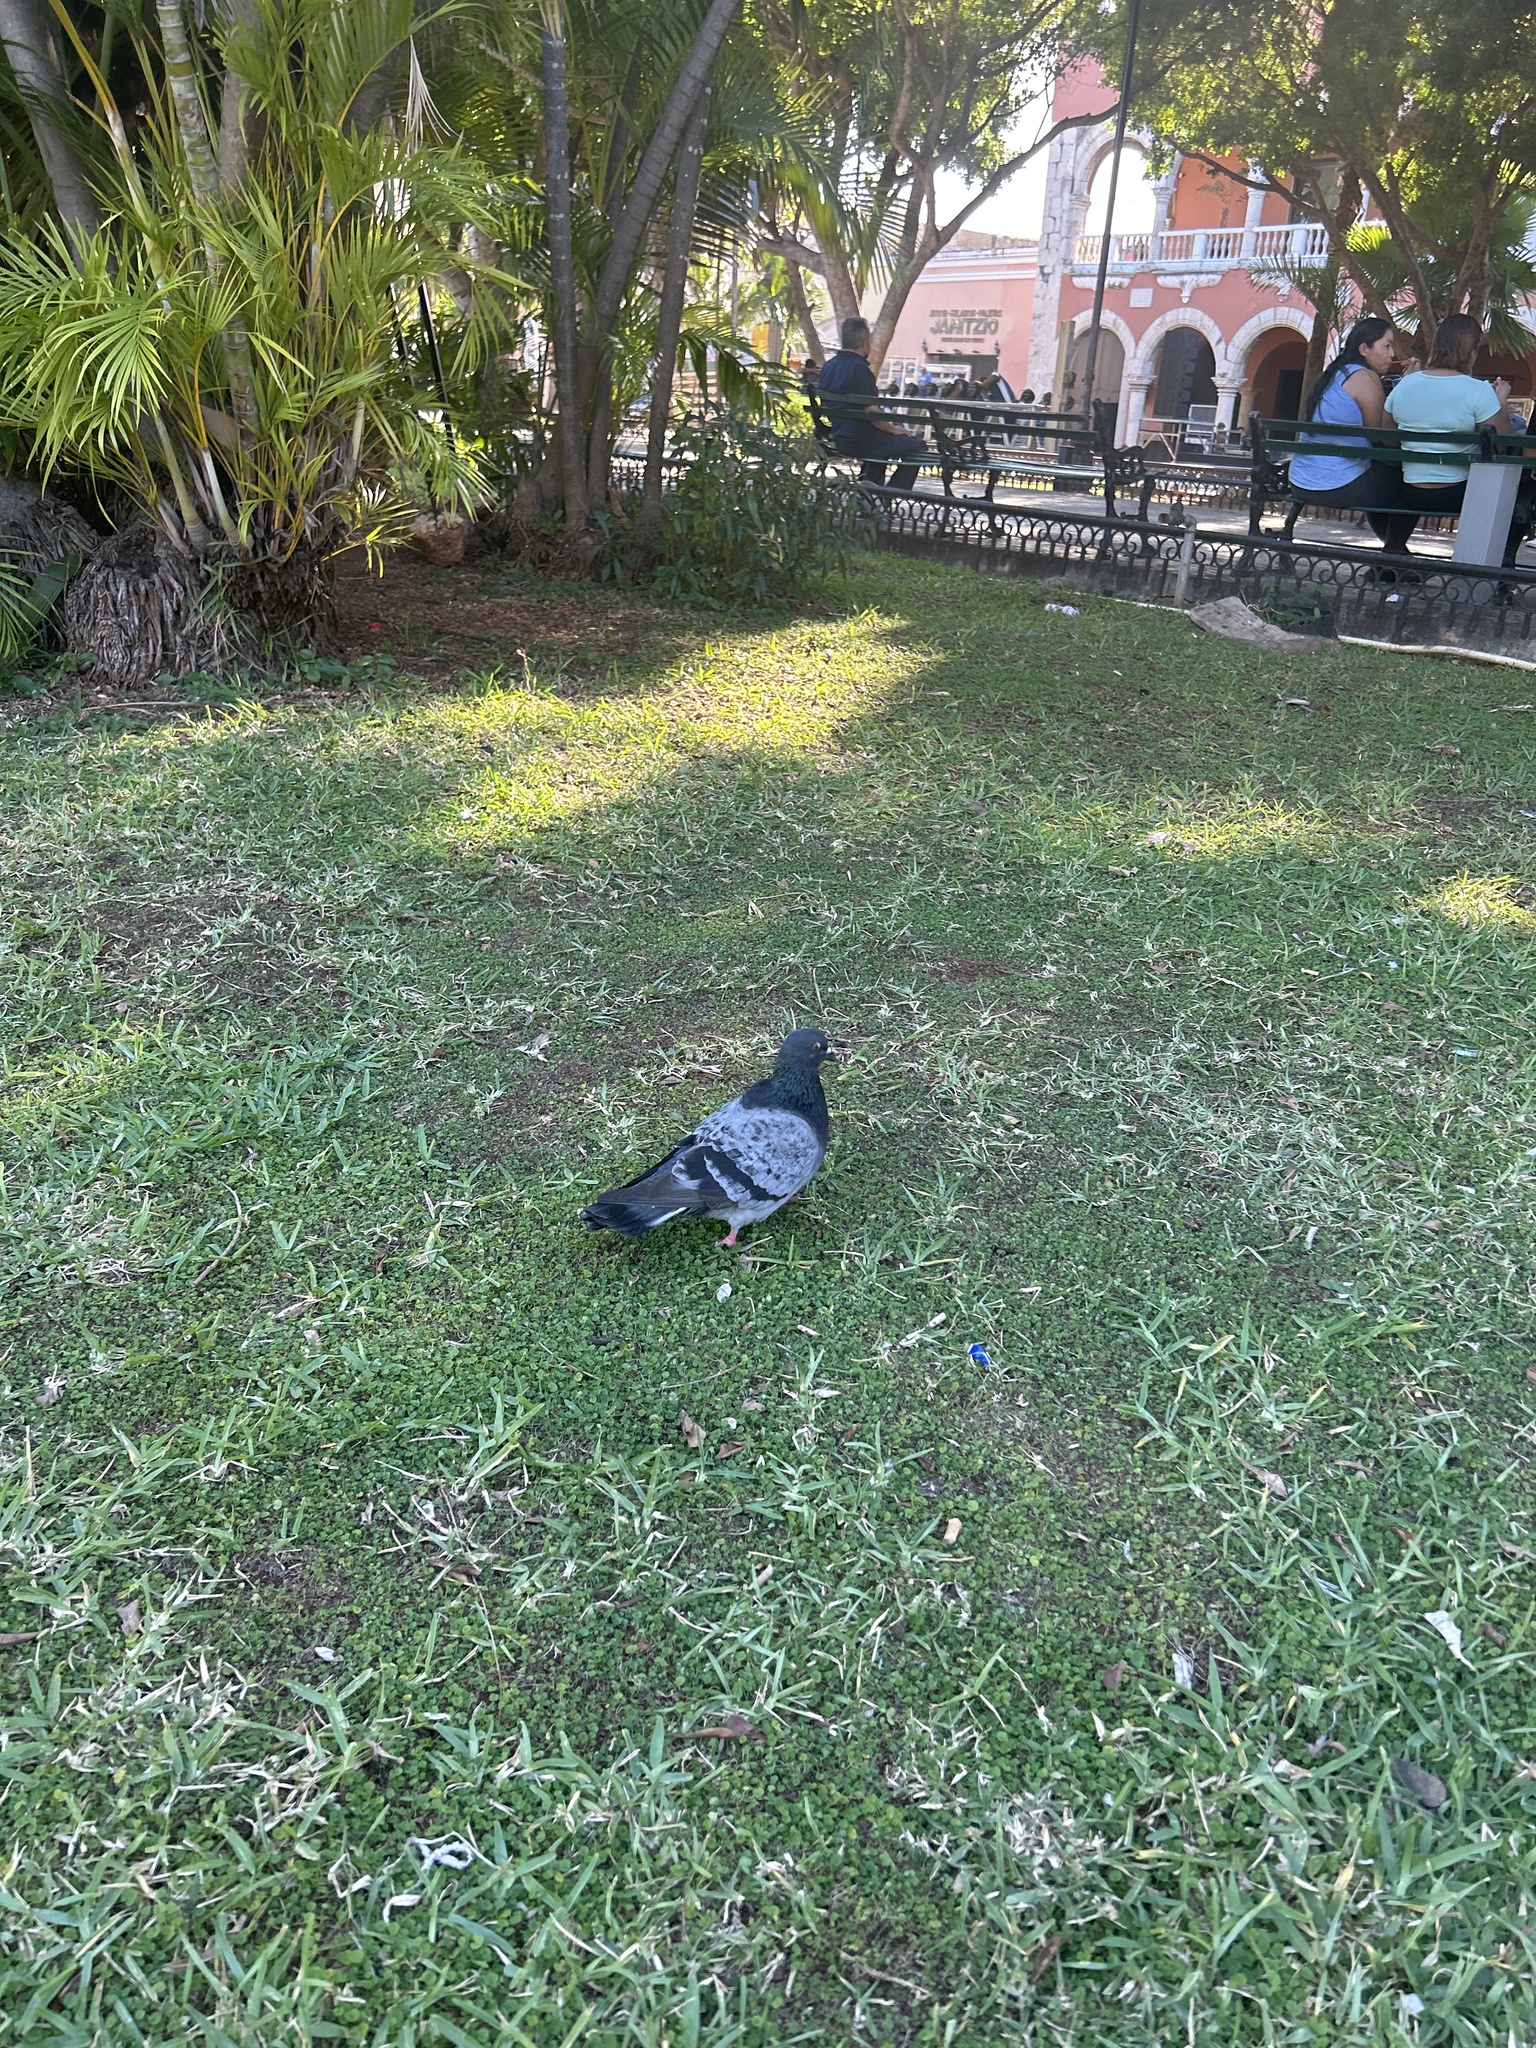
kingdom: Animalia
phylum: Chordata
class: Aves
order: Columbiformes
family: Columbidae
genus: Columba
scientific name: Columba livia
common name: Rock pigeon
